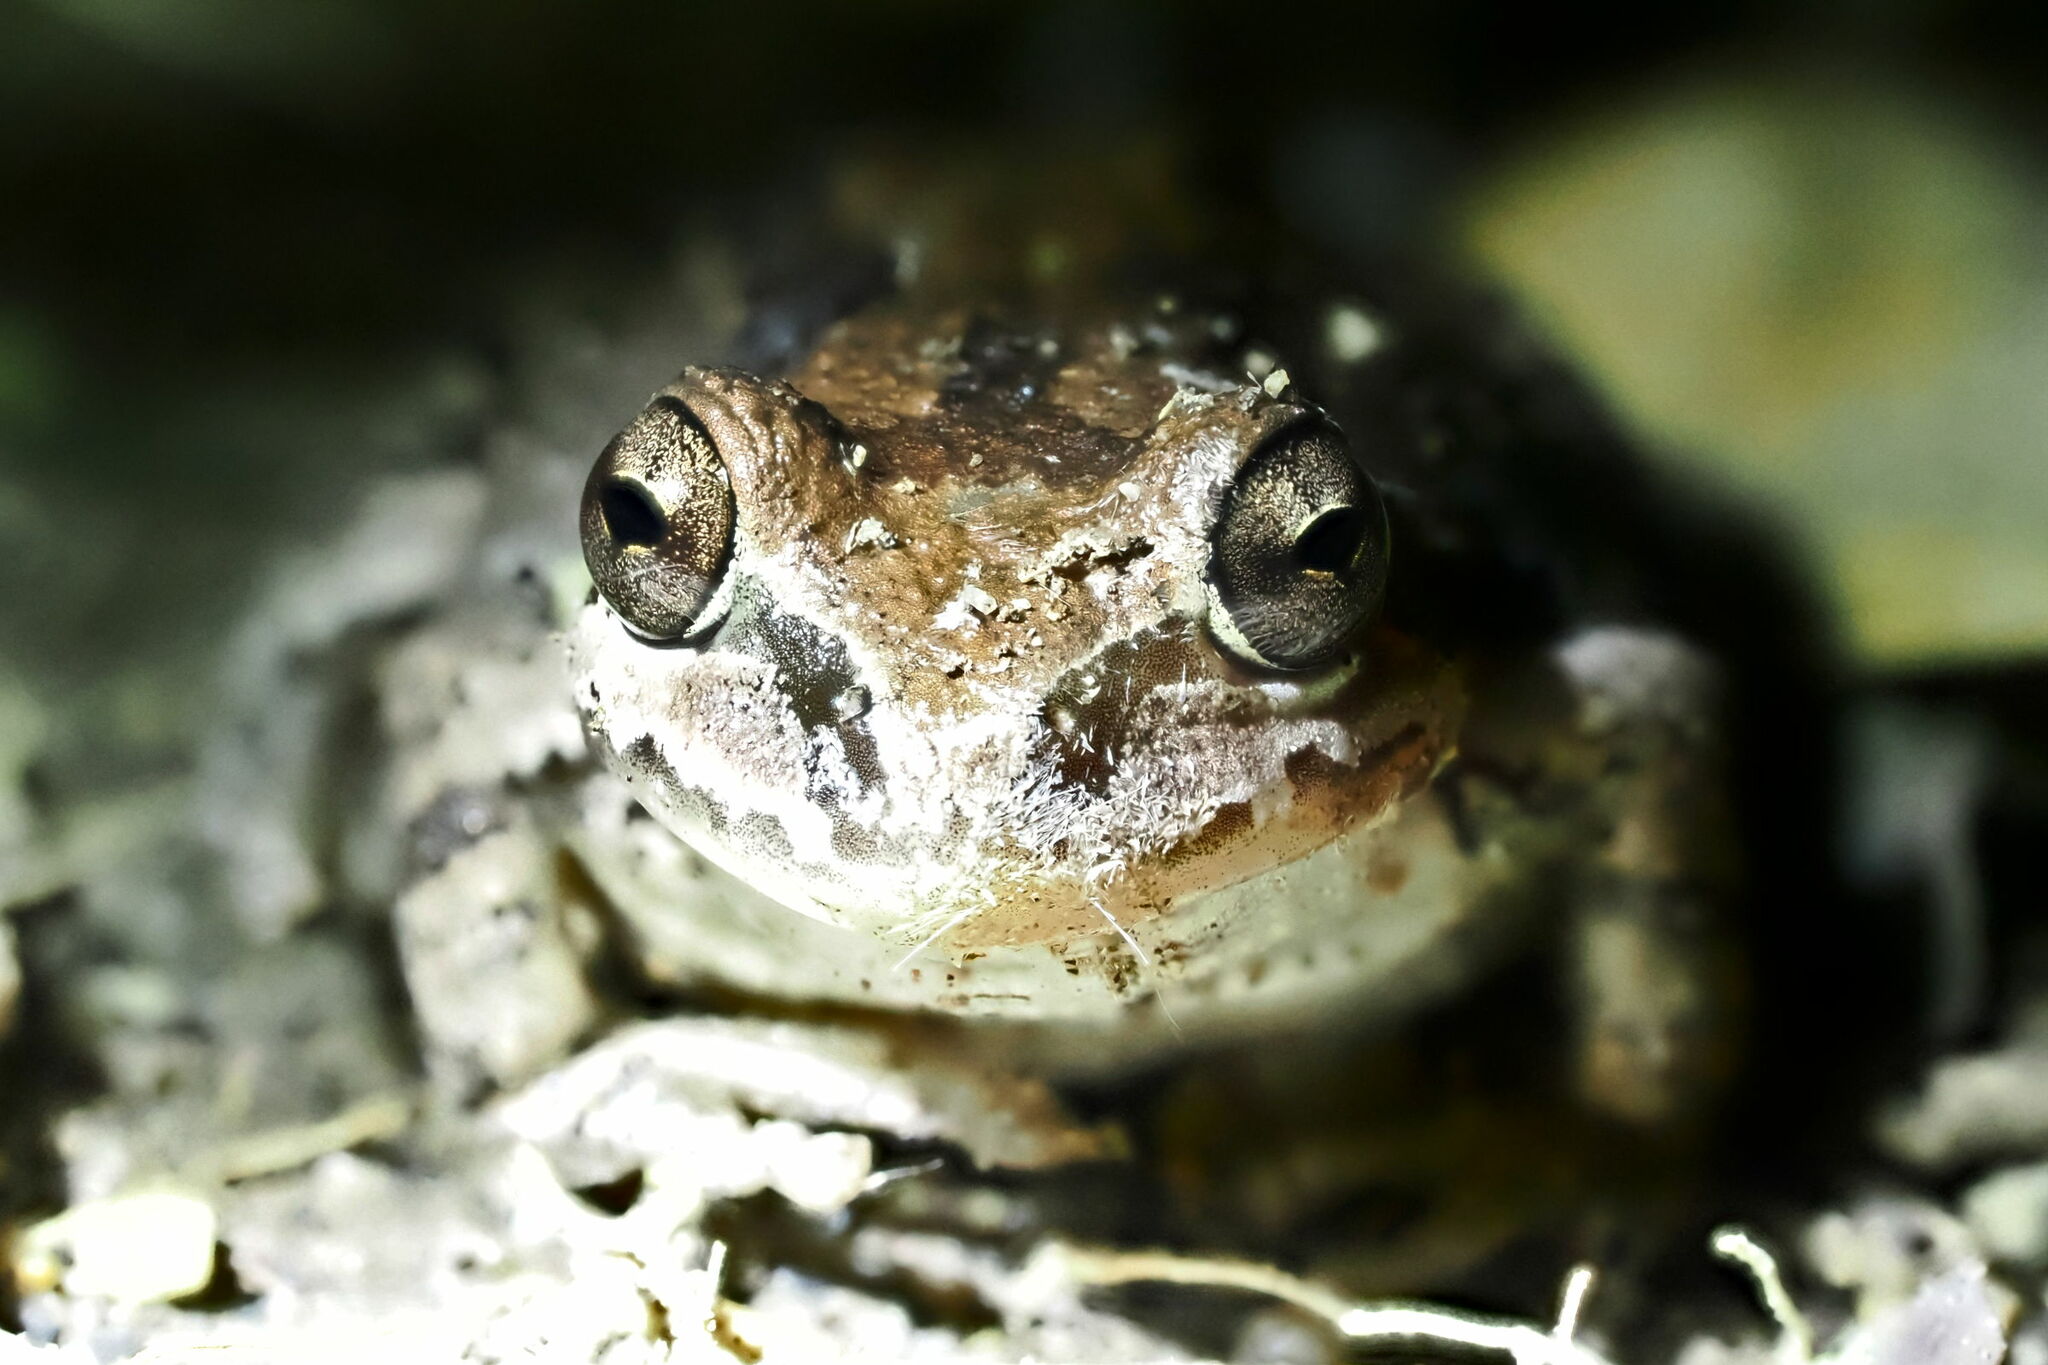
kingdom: Animalia
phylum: Chordata
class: Amphibia
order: Anura
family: Hylidae
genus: Pseudacris
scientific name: Pseudacris regilla
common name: Pacific chorus frog
